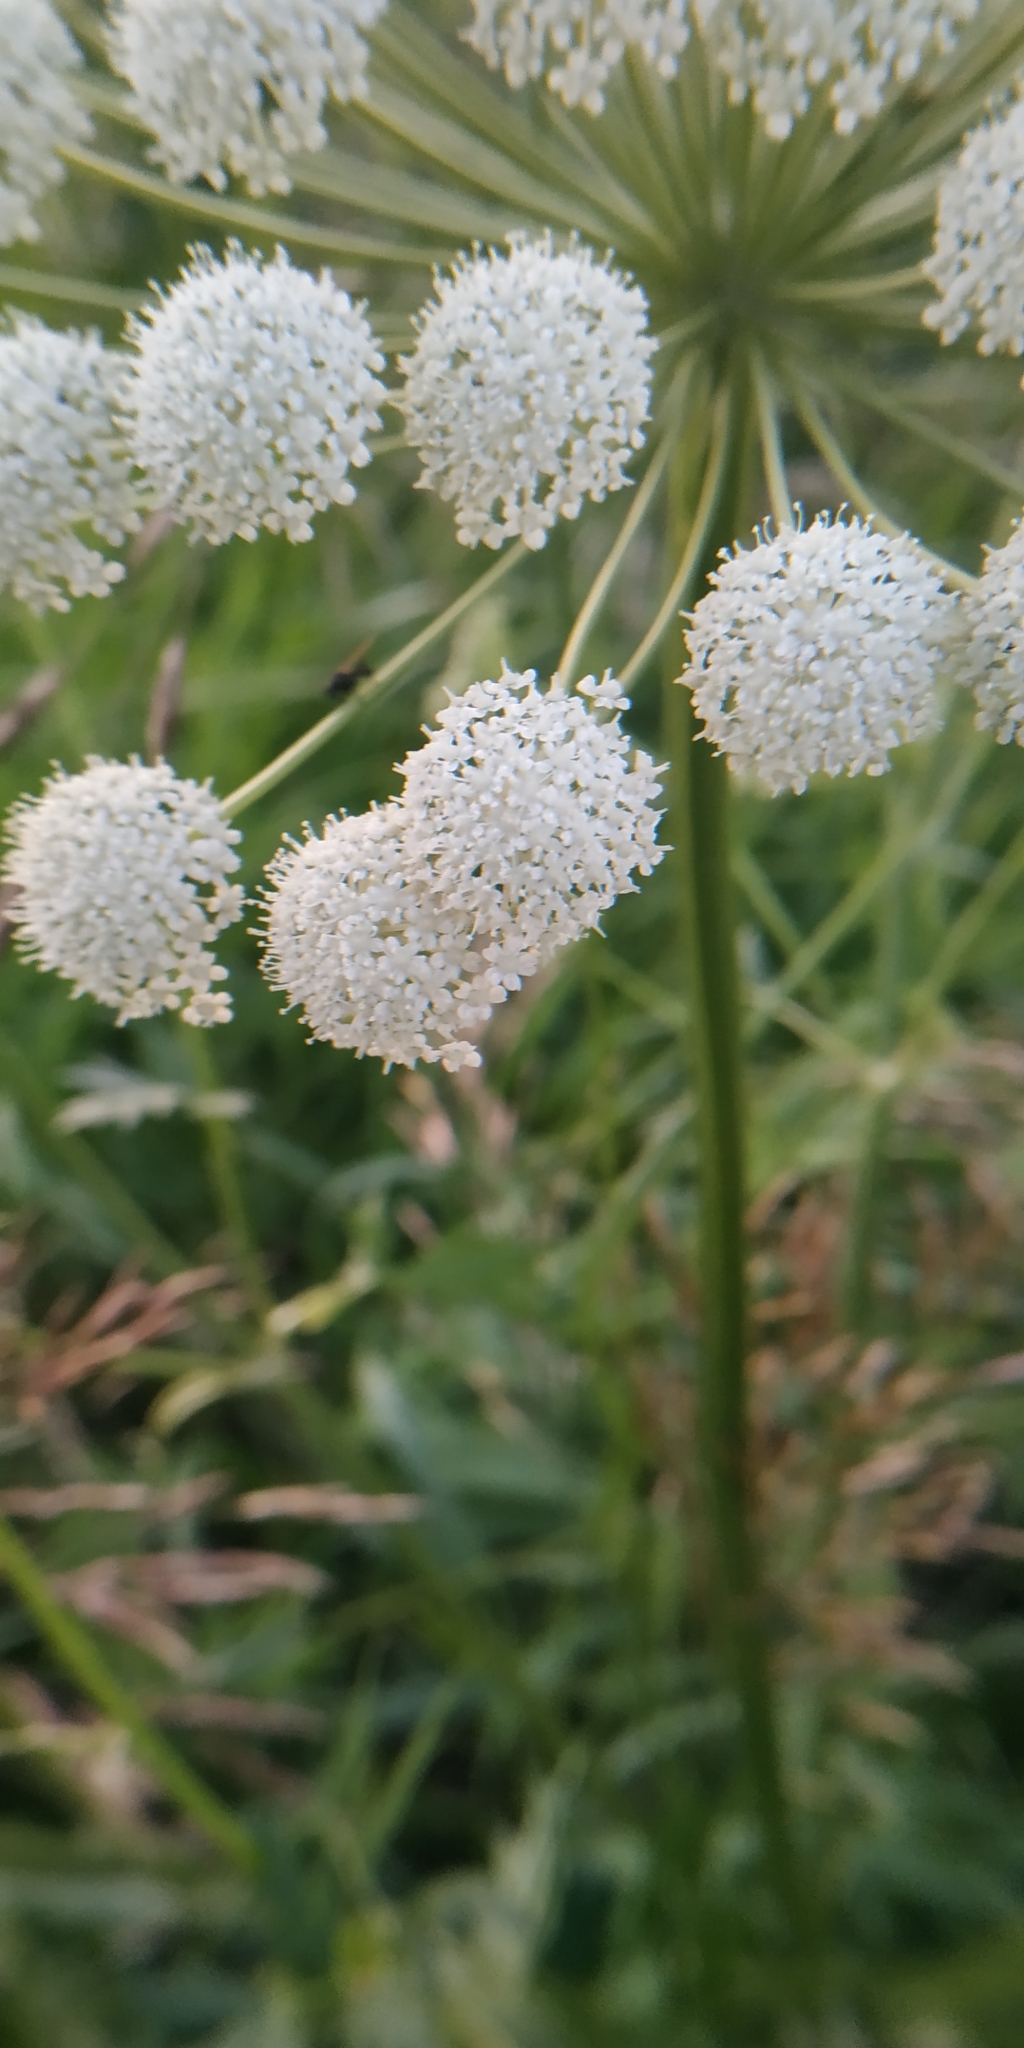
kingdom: Plantae
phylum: Tracheophyta
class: Magnoliopsida
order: Apiales
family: Apiaceae
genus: Seseli
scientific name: Seseli libanotis
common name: Mooncarrot
